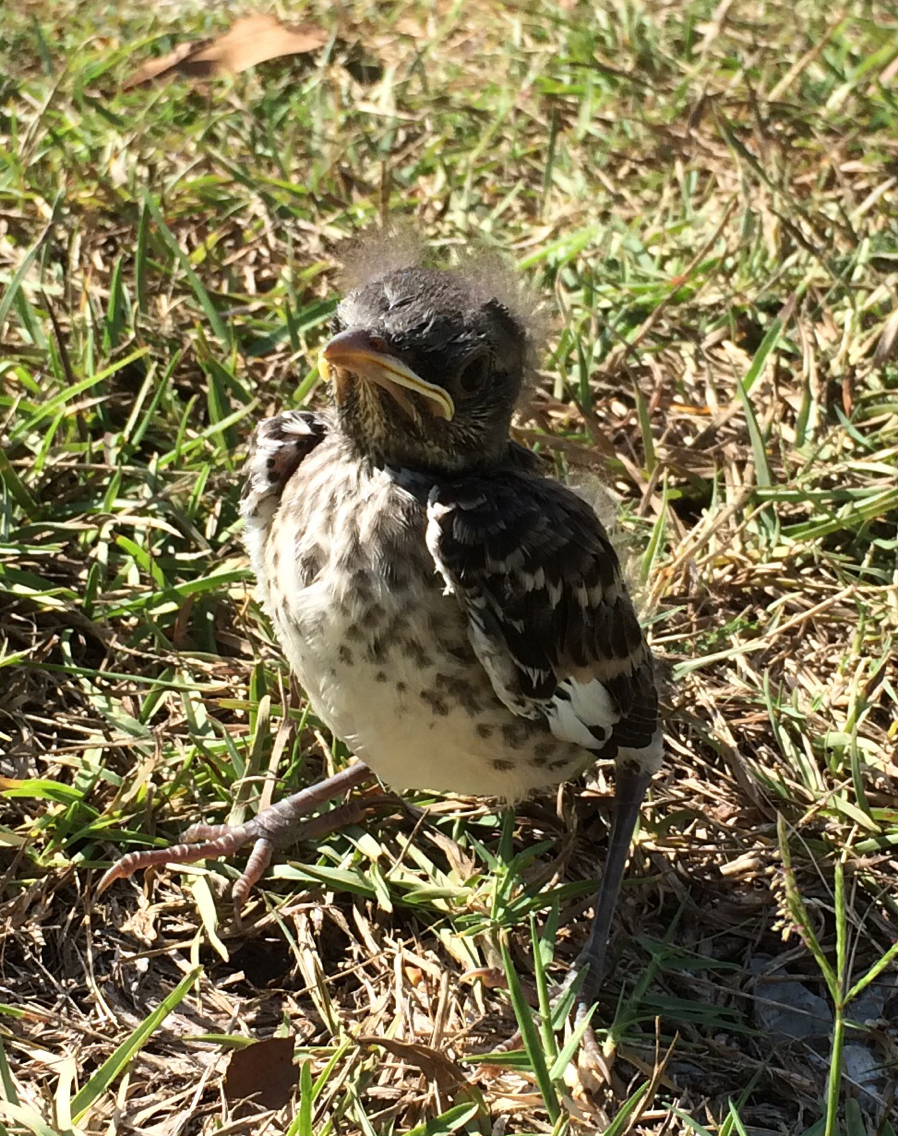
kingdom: Animalia
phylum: Chordata
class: Aves
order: Passeriformes
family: Mimidae
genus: Mimus
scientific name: Mimus polyglottos
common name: Northern mockingbird
